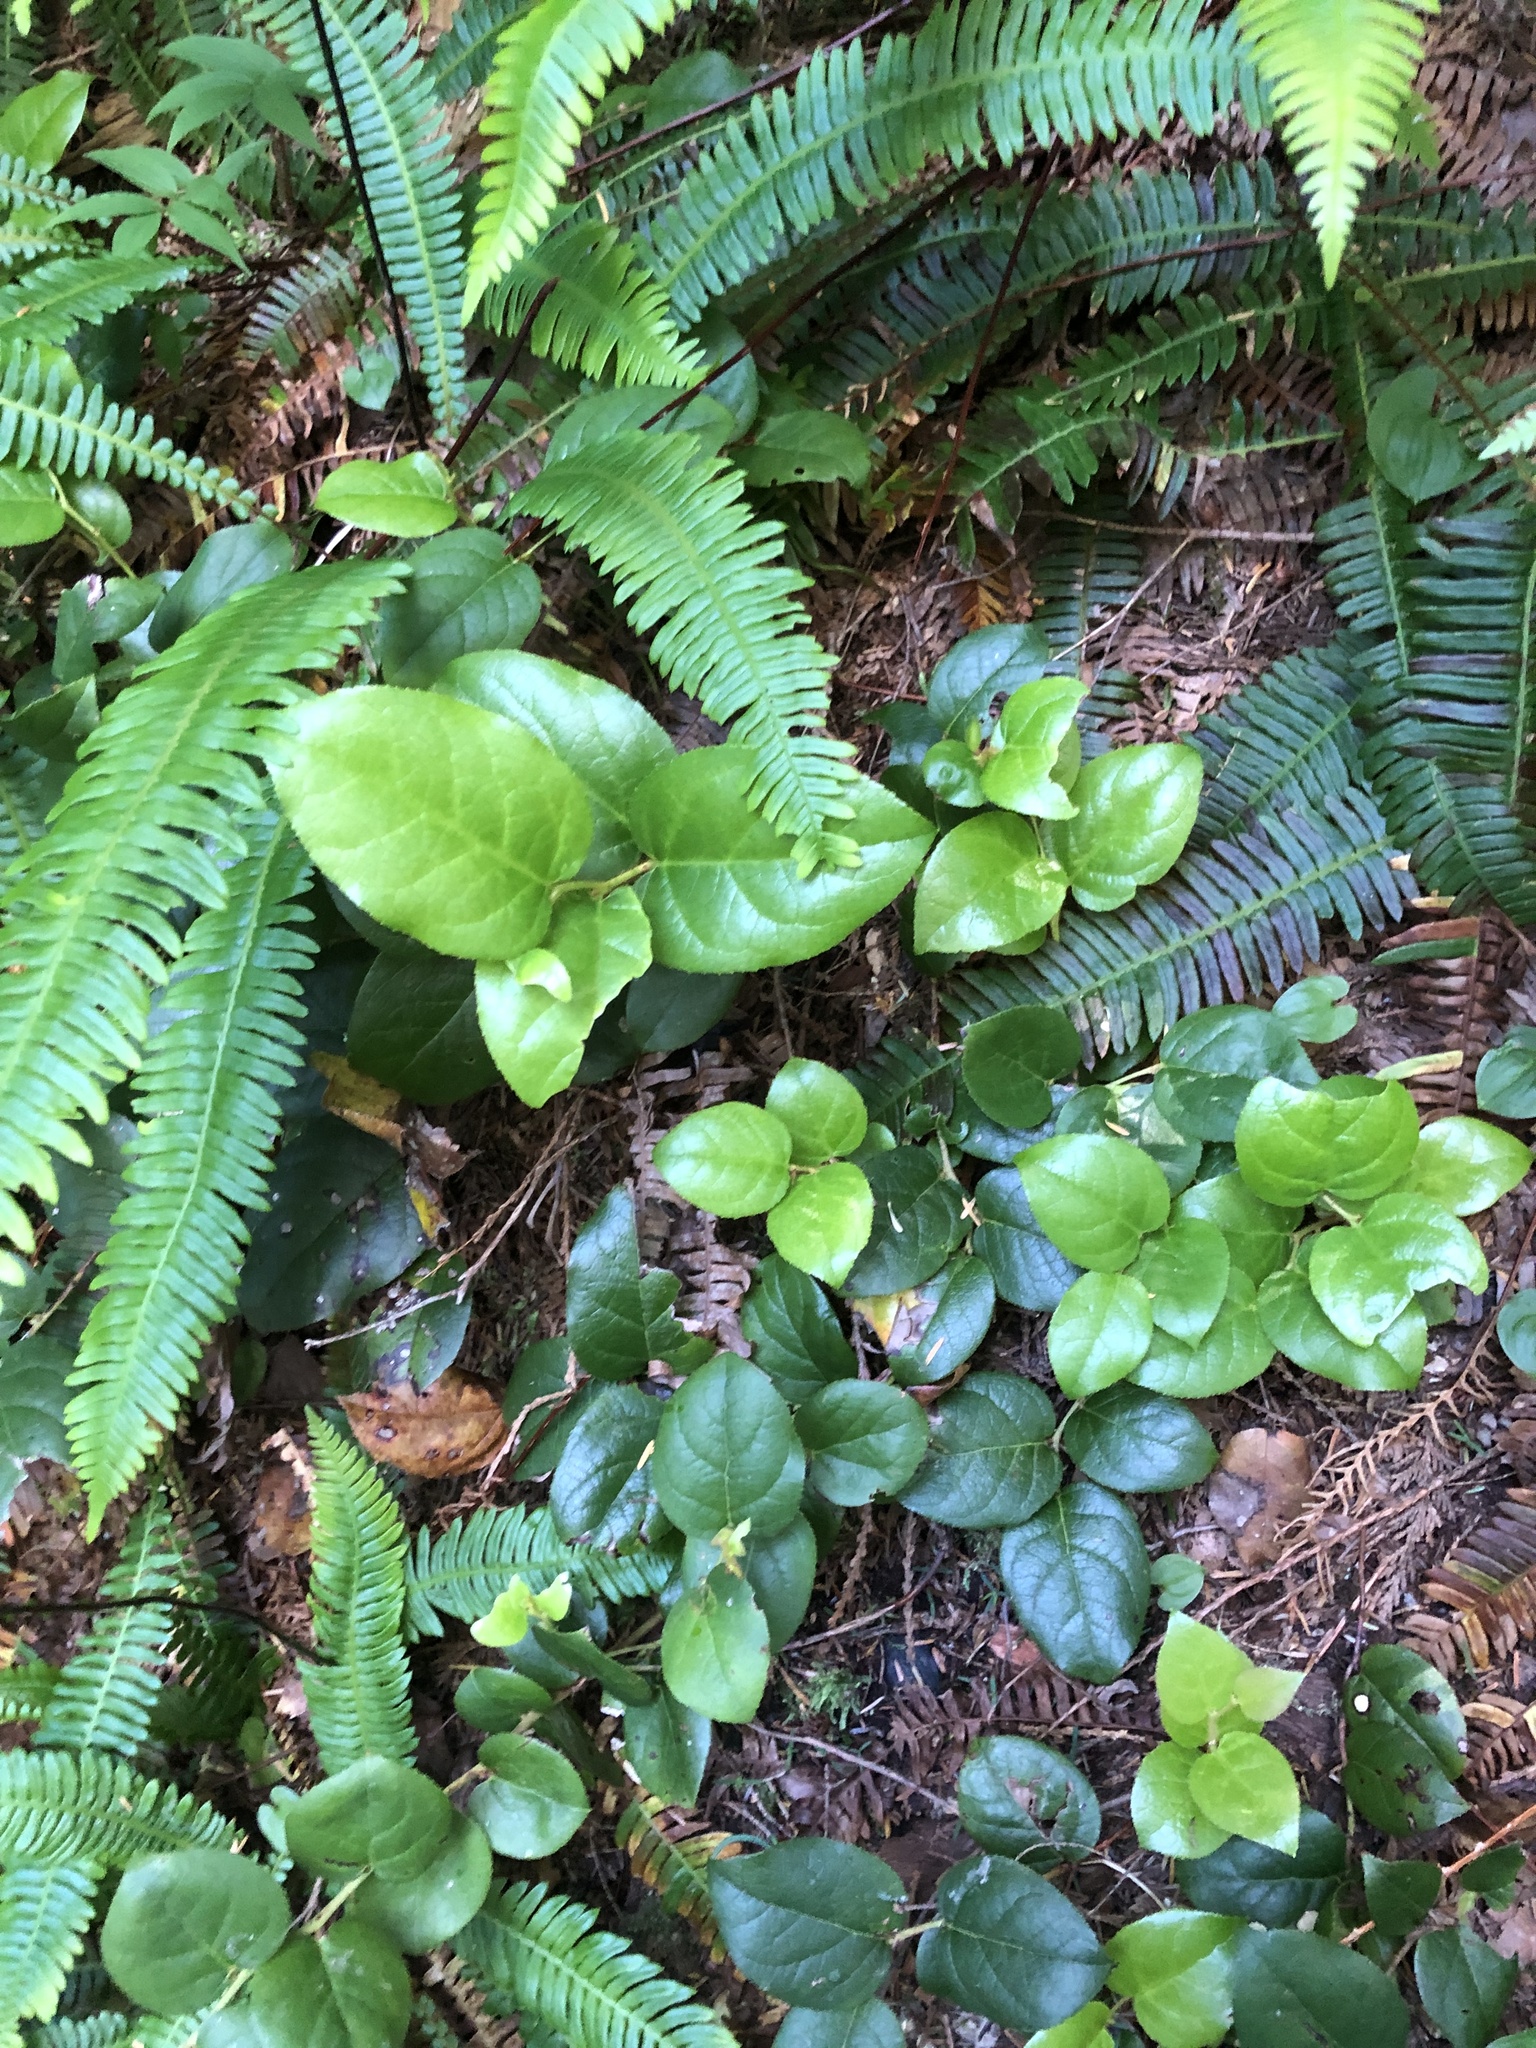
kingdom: Plantae
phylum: Tracheophyta
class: Magnoliopsida
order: Ericales
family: Ericaceae
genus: Gaultheria
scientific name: Gaultheria shallon
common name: Shallon
